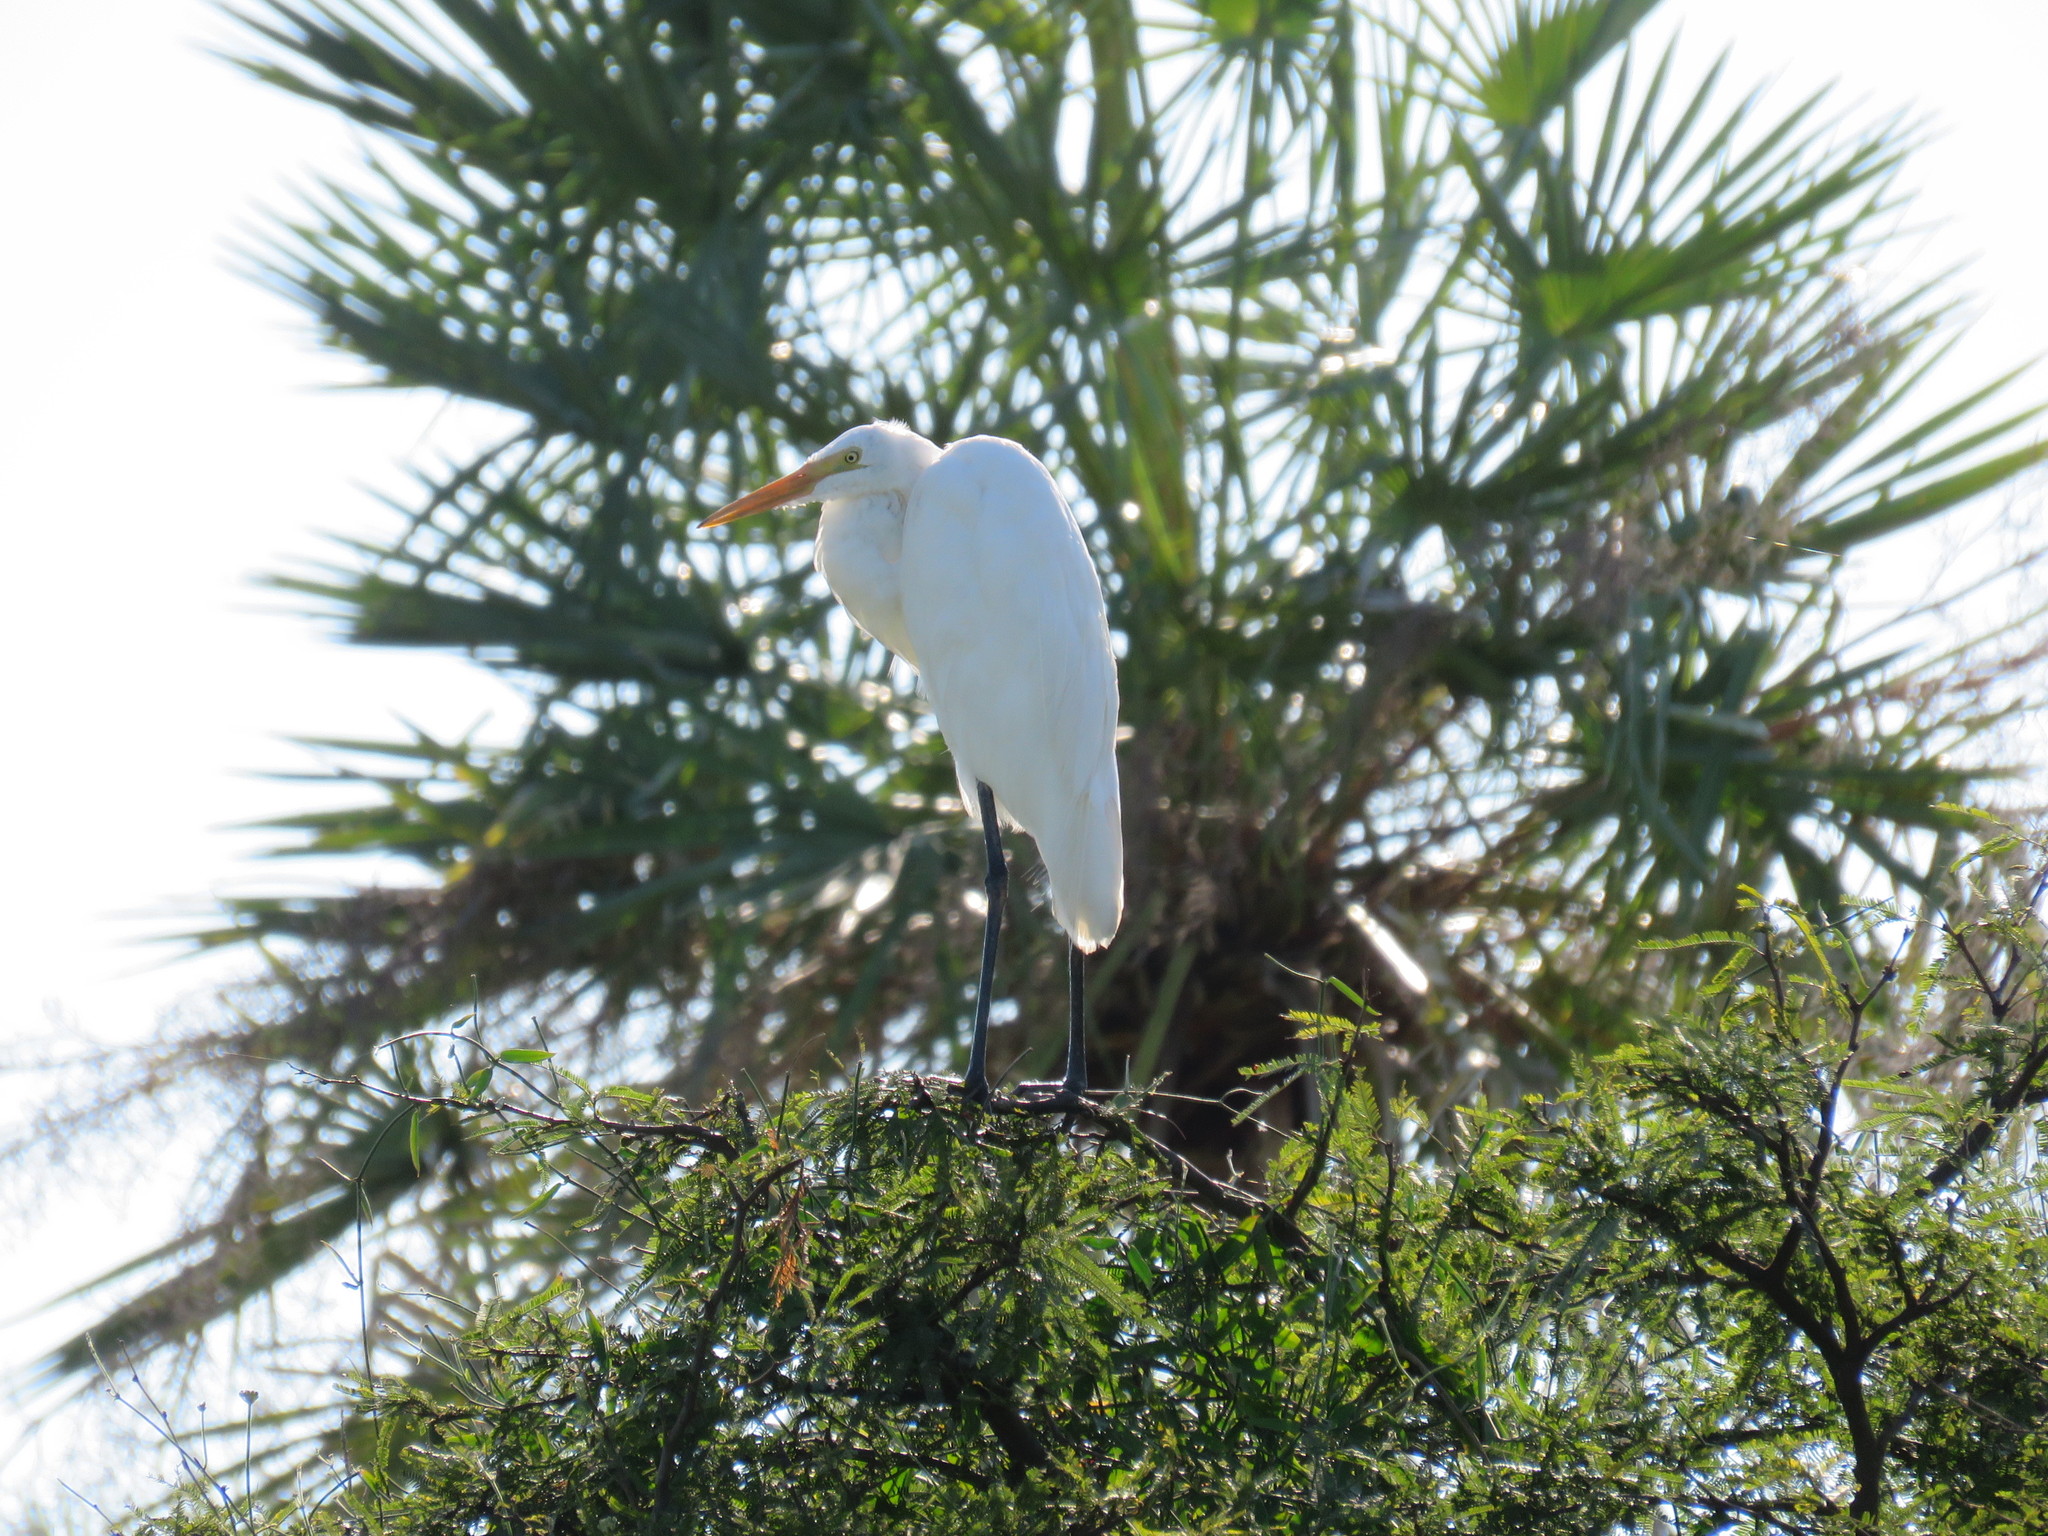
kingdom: Animalia
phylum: Chordata
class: Aves
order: Pelecaniformes
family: Ardeidae
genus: Ardea
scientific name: Ardea alba
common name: Great egret
